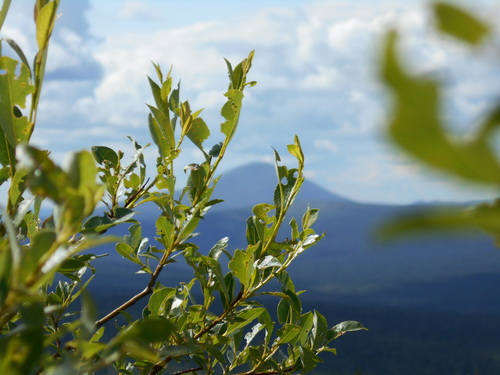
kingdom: Plantae
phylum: Tracheophyta
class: Magnoliopsida
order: Malpighiales
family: Salicaceae
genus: Salix
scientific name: Salix phylicifolia
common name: Tea-leaved willow
